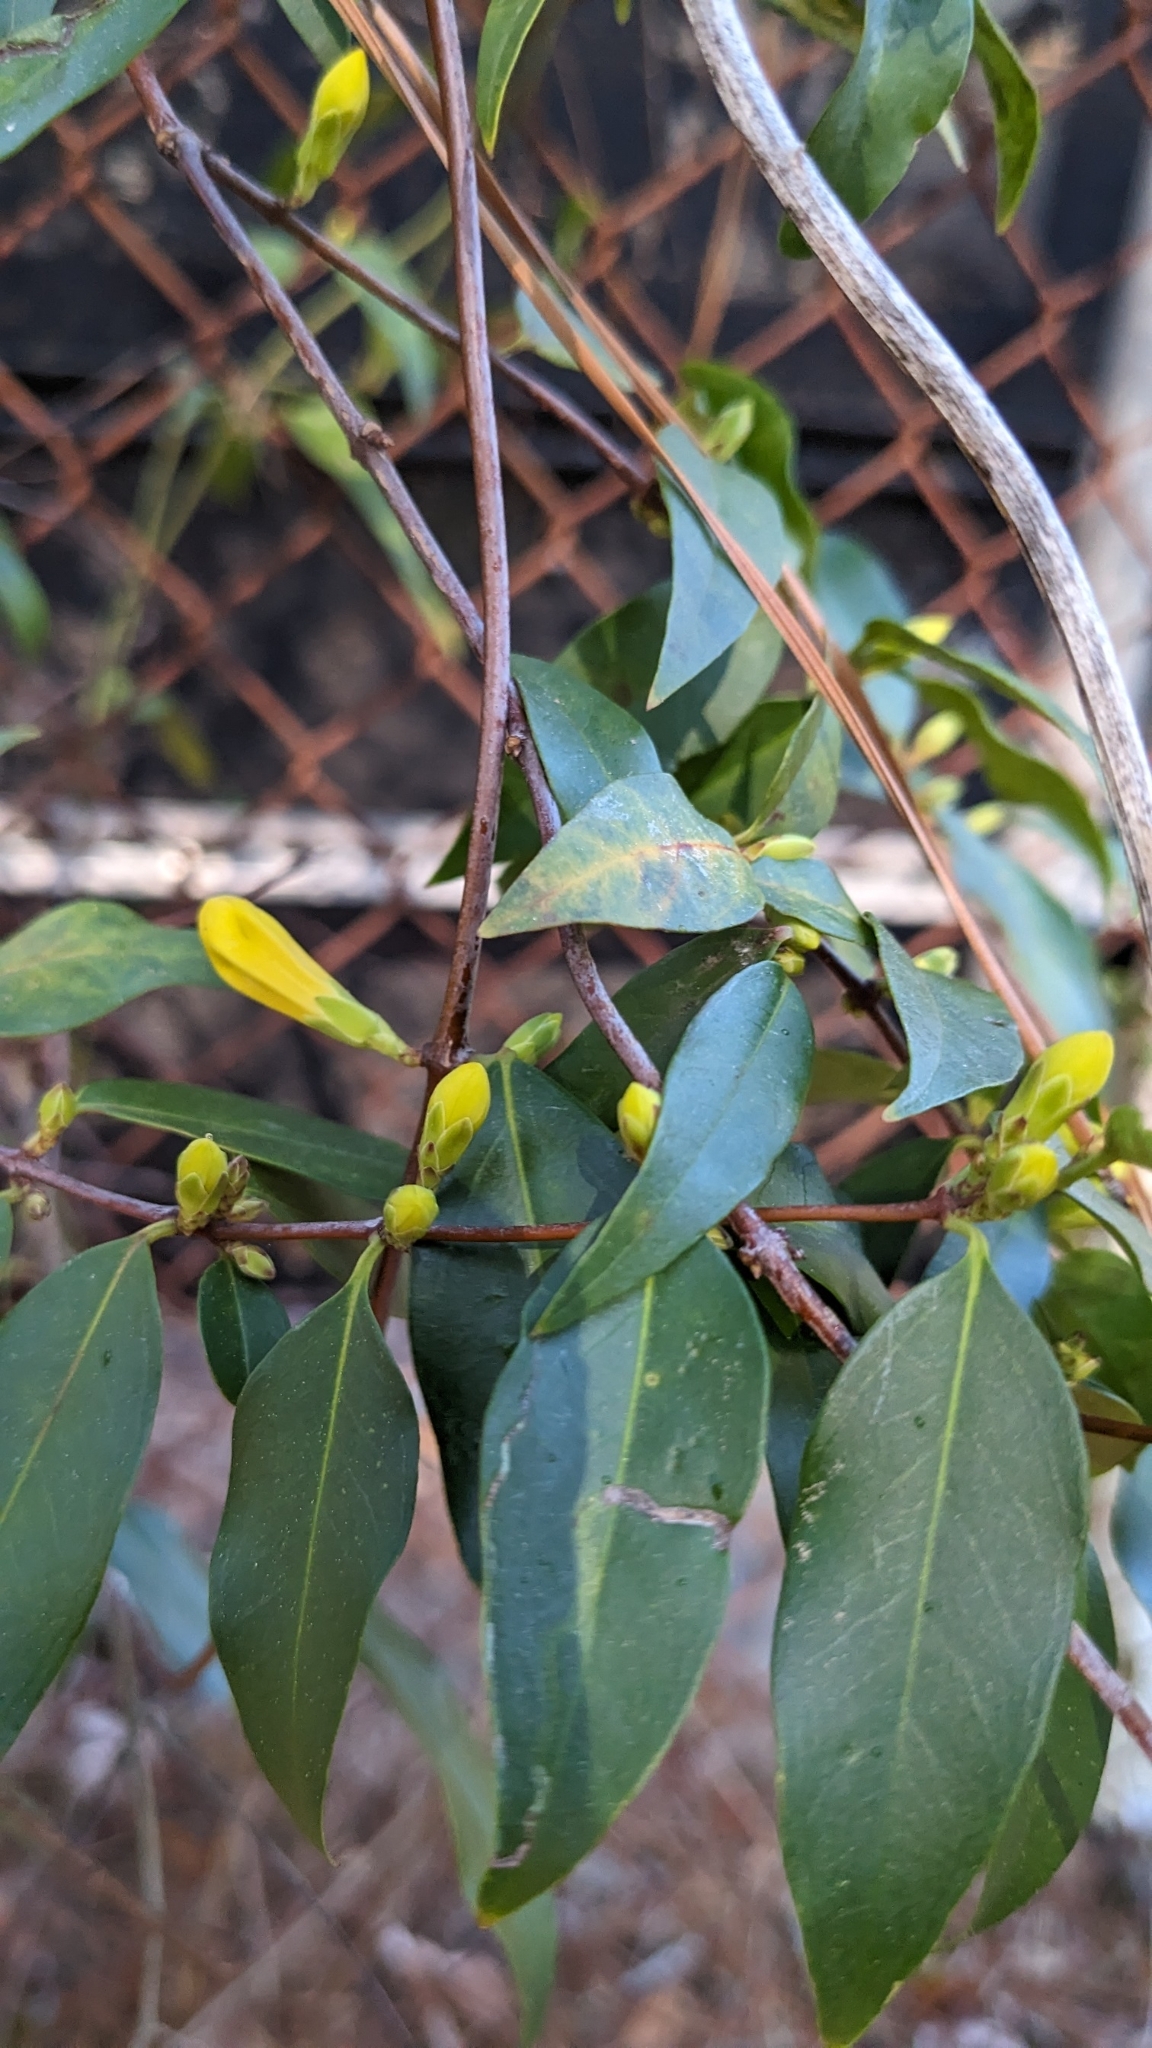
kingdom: Plantae
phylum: Tracheophyta
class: Magnoliopsida
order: Gentianales
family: Gelsemiaceae
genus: Gelsemium
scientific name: Gelsemium sempervirens
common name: Carolina-jasmine
